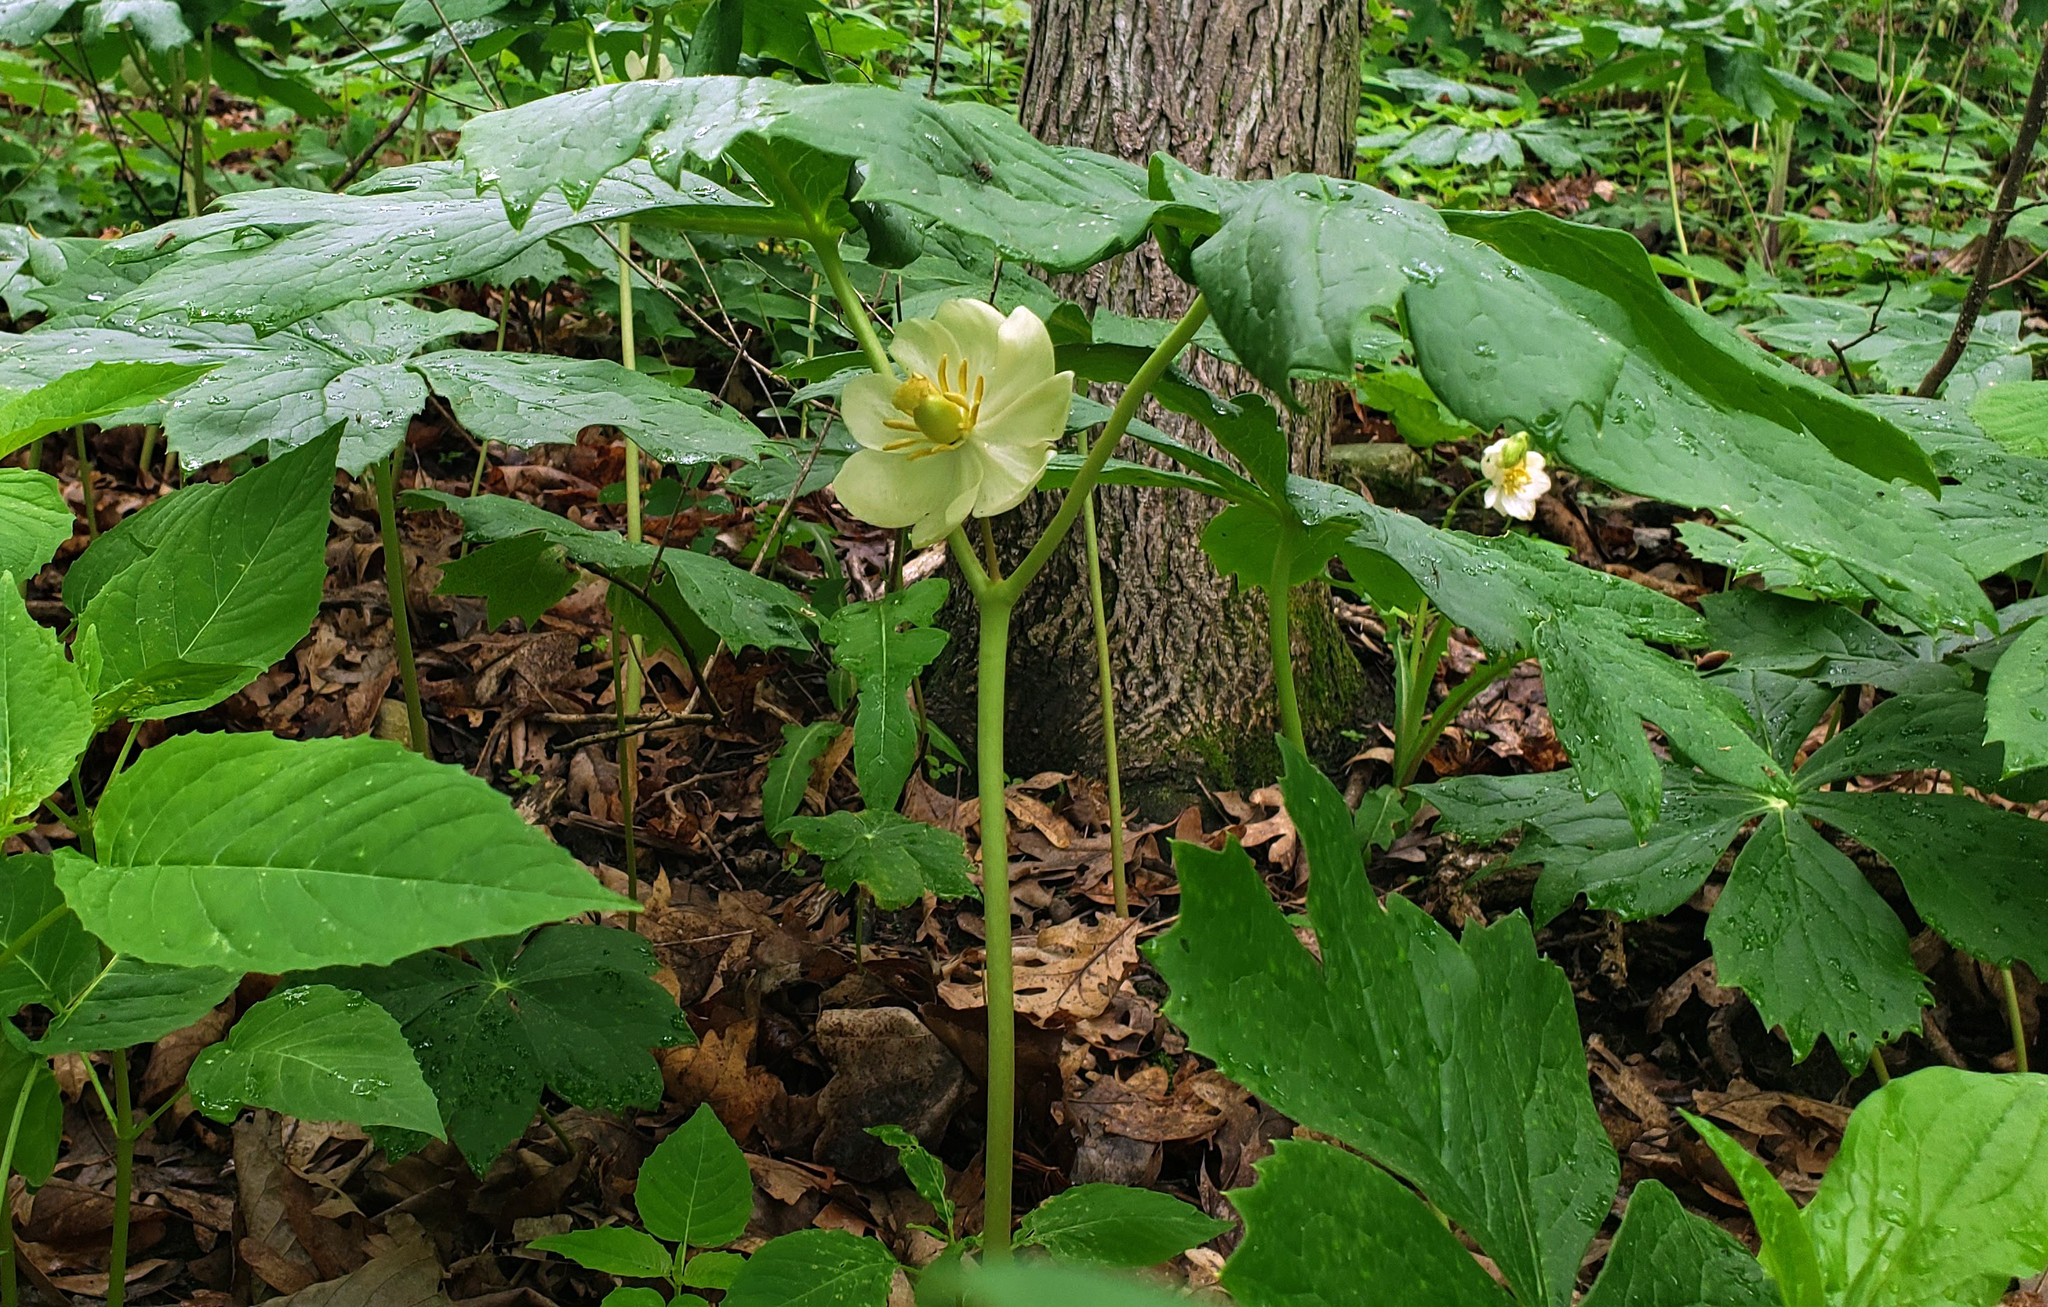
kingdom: Plantae
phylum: Tracheophyta
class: Magnoliopsida
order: Ranunculales
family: Berberidaceae
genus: Podophyllum
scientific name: Podophyllum peltatum
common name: Wild mandrake
